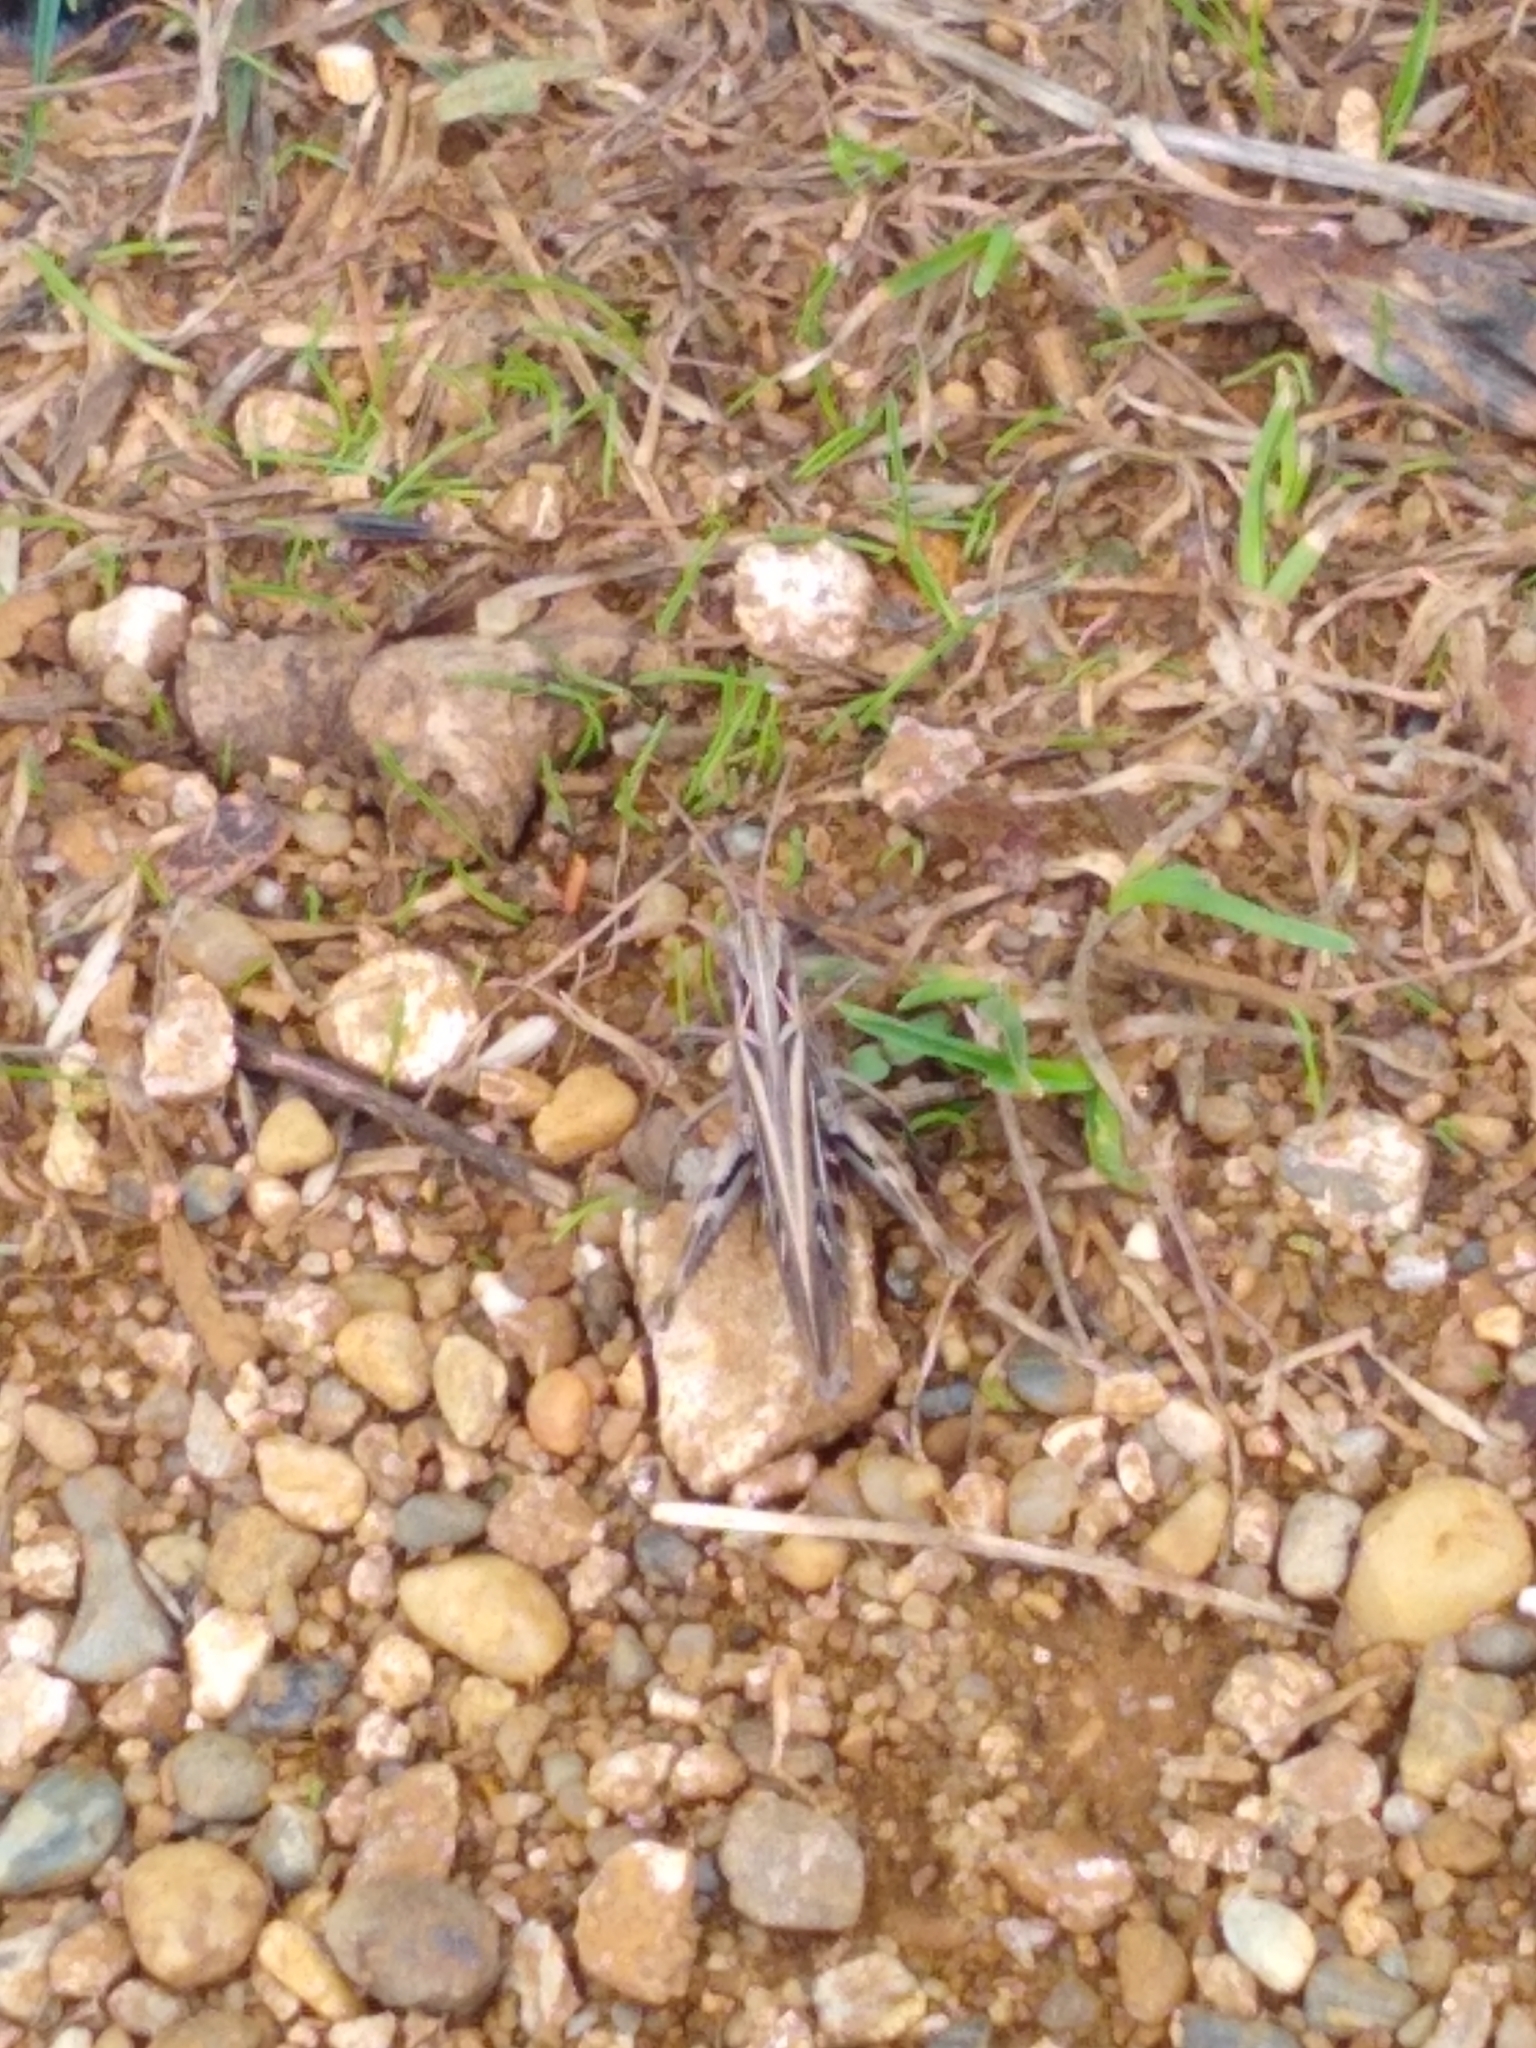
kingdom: Animalia
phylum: Arthropoda
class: Insecta
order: Orthoptera
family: Acrididae
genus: Chorthippus
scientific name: Chorthippus brunneus
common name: Field grasshopper
